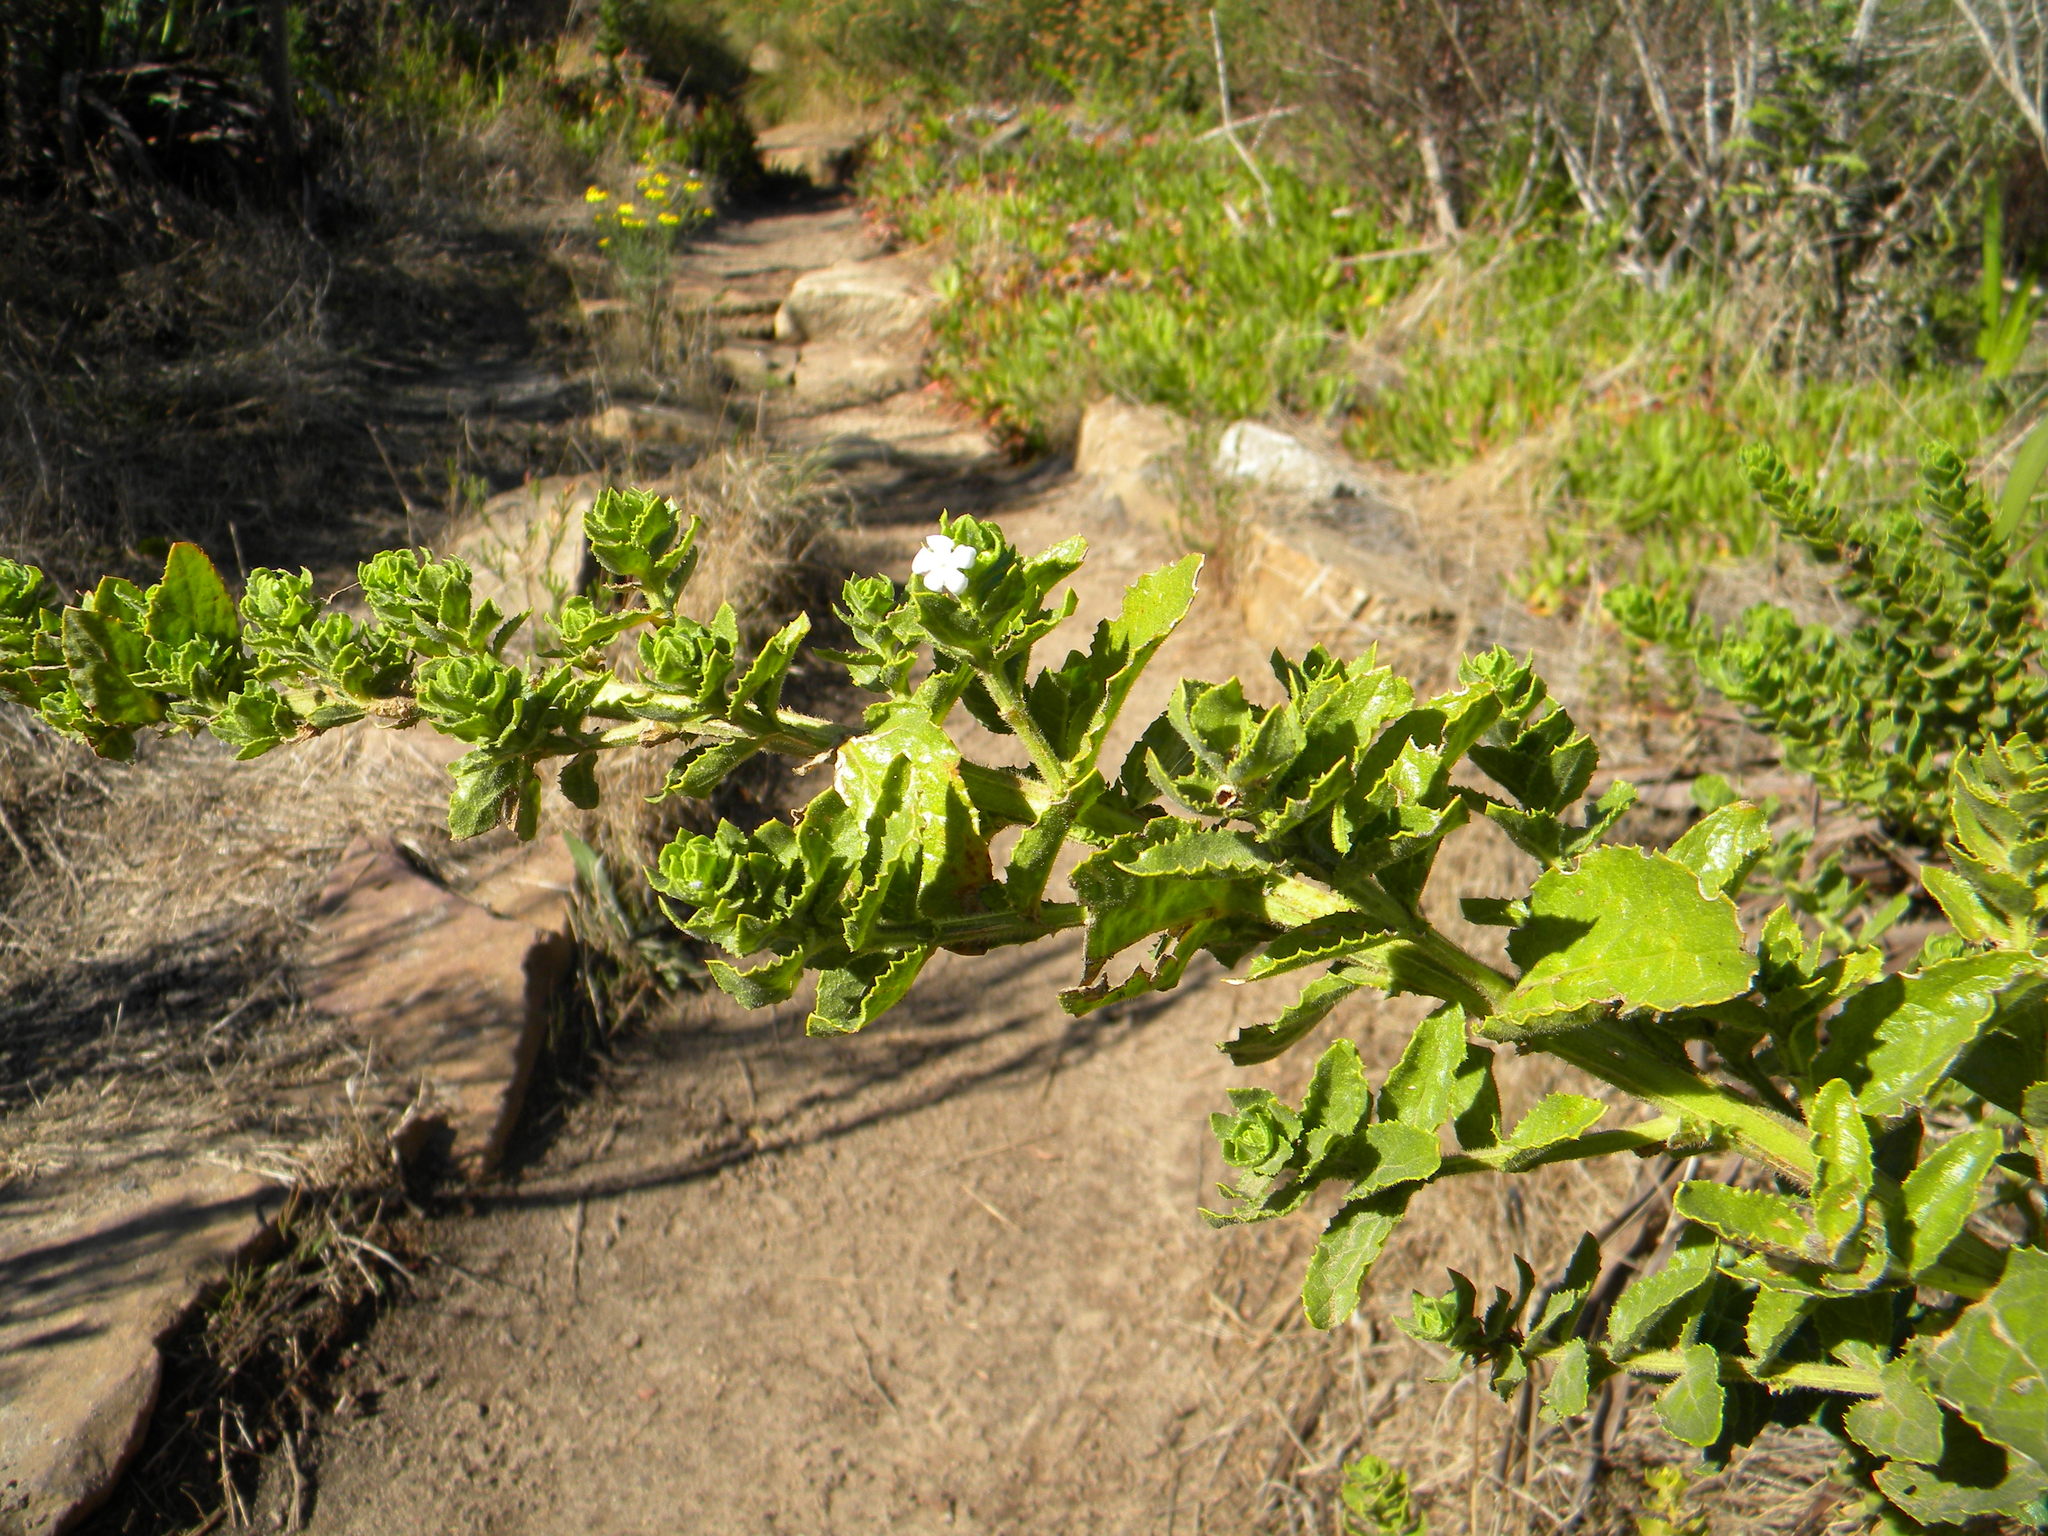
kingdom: Plantae
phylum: Tracheophyta
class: Magnoliopsida
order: Lamiales
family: Scrophulariaceae
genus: Oftia
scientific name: Oftia africana
